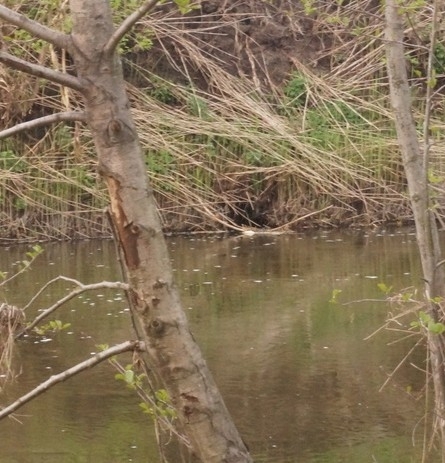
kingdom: Animalia
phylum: Chordata
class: Aves
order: Coraciiformes
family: Alcedinidae
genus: Alcedo
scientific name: Alcedo atthis
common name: Common kingfisher
